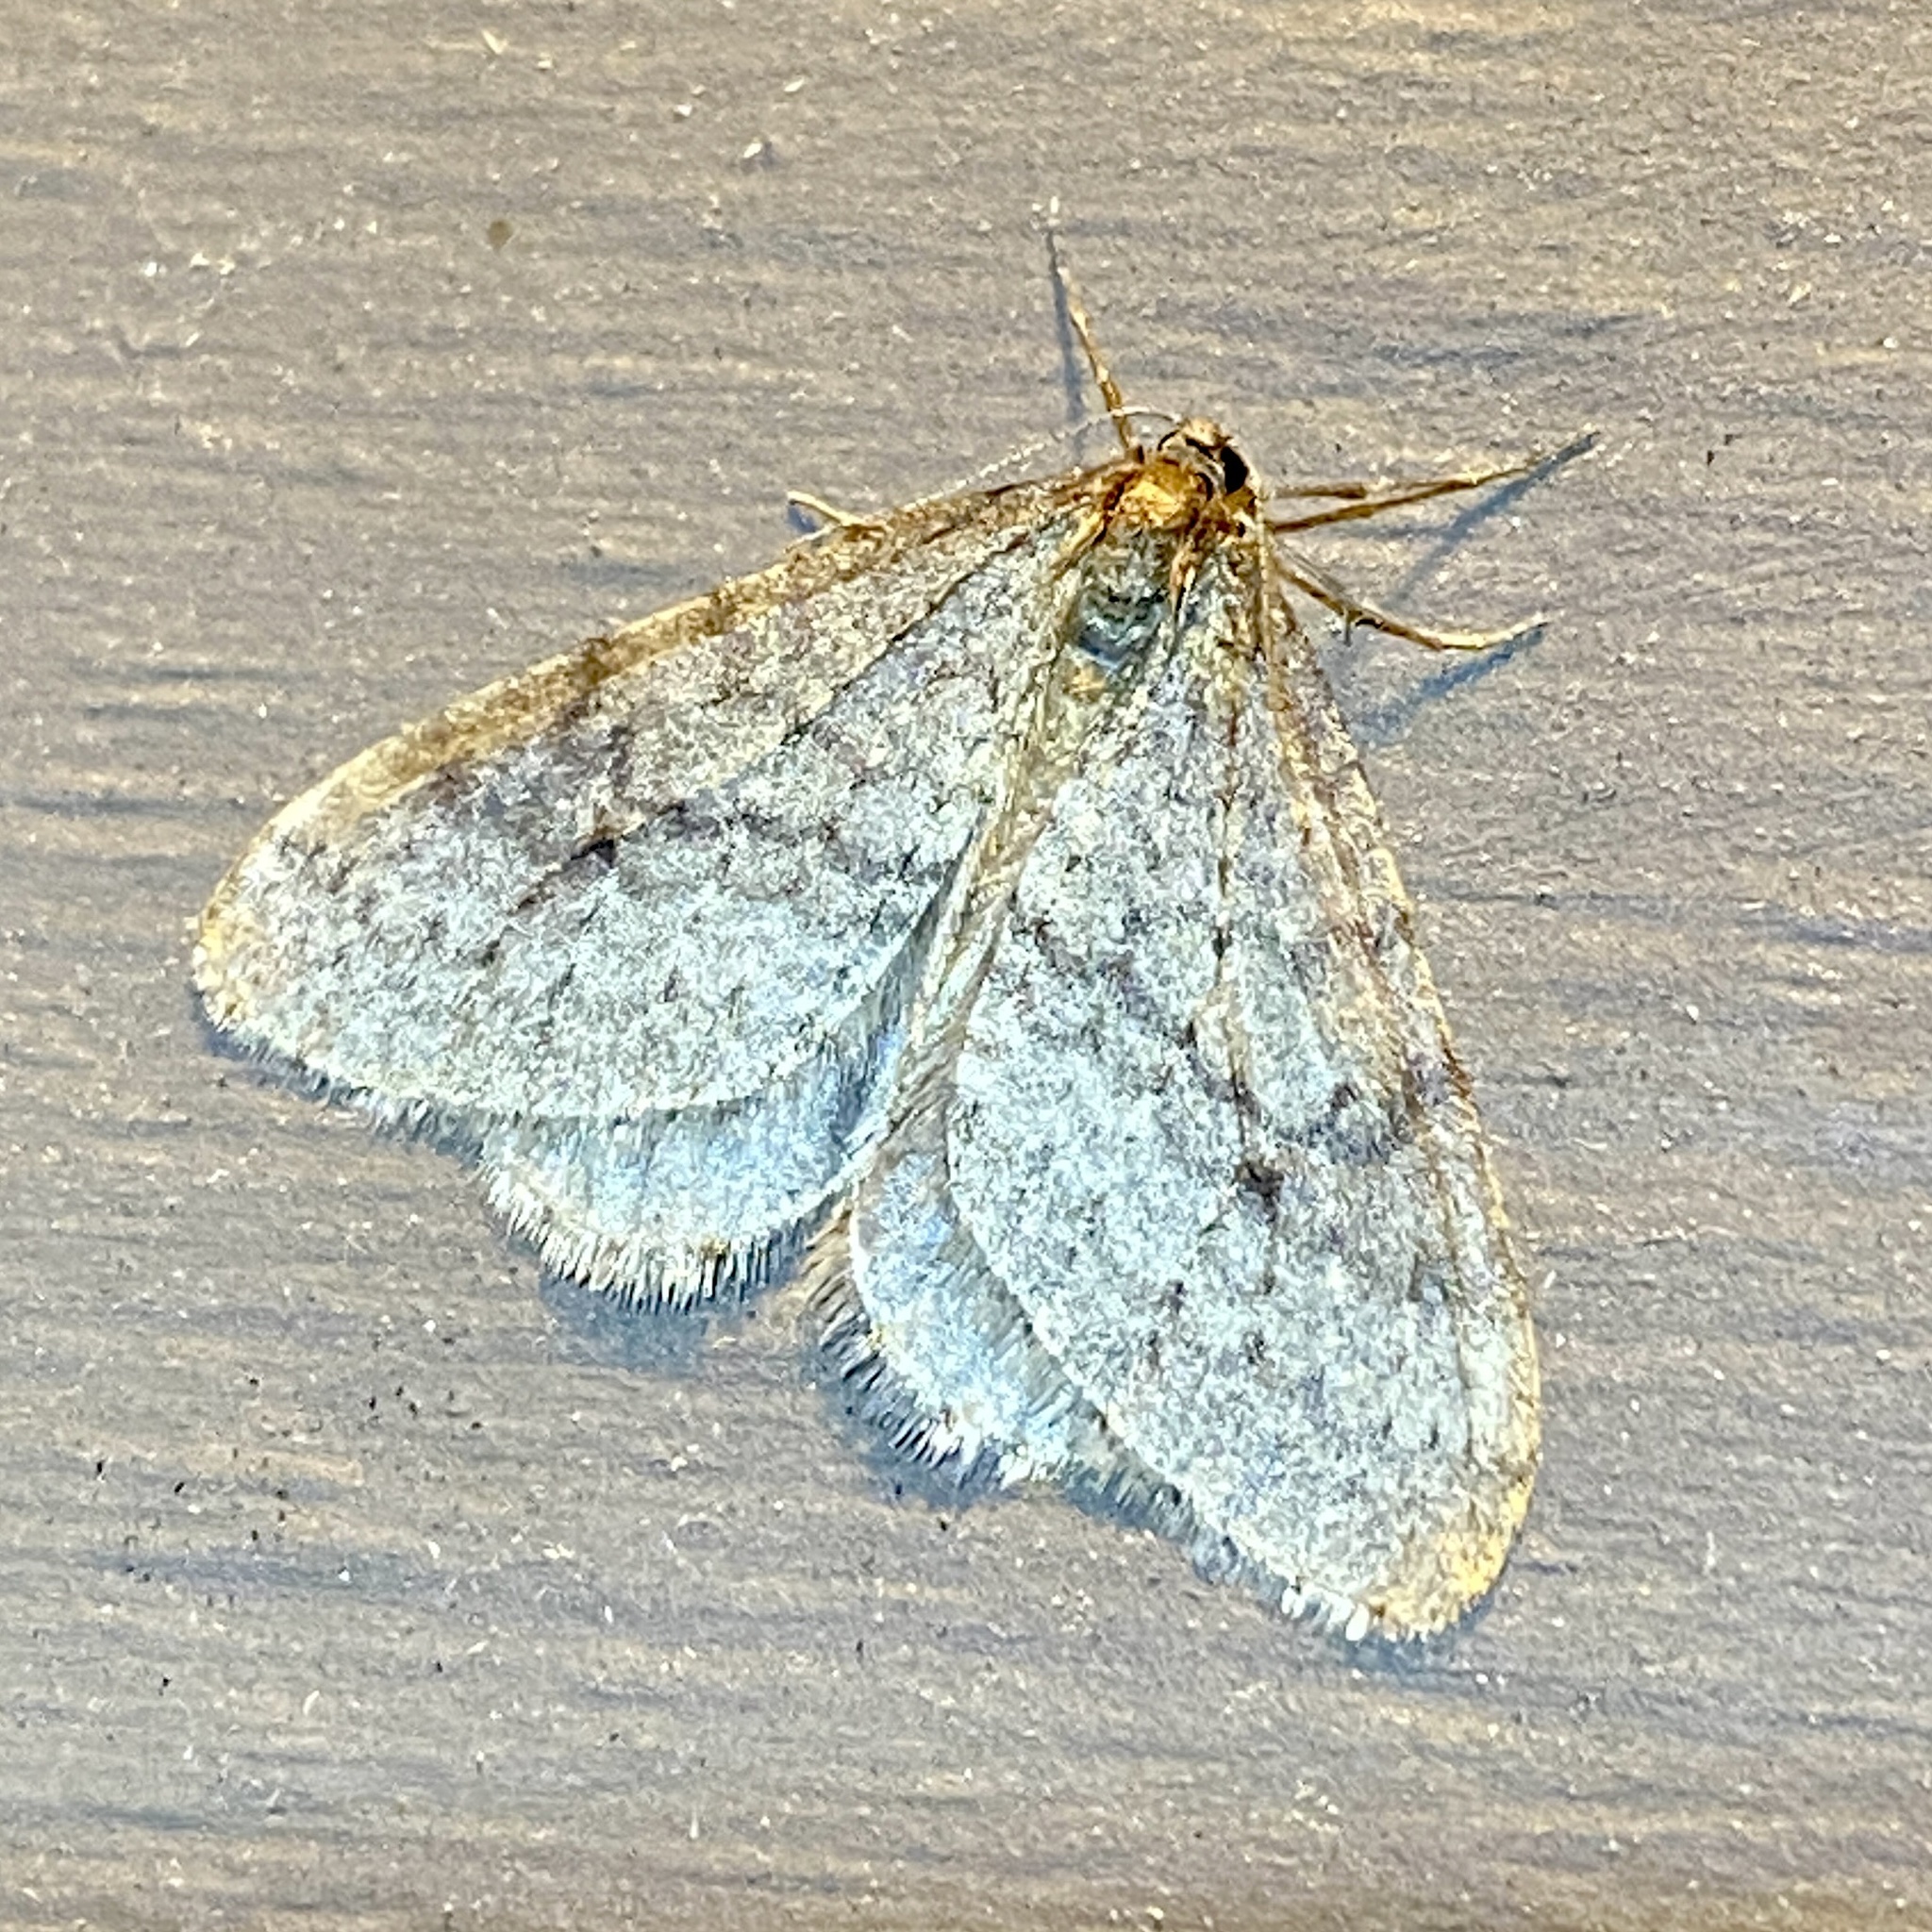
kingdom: Animalia
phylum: Arthropoda
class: Insecta
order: Lepidoptera
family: Geometridae
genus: Operophtera
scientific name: Operophtera bruceata
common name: Bruce spanworm
